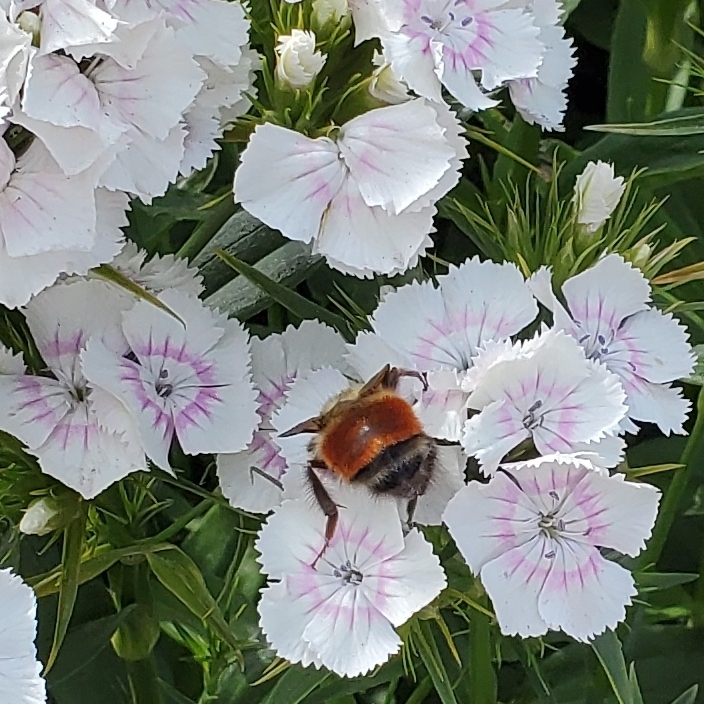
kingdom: Animalia
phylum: Arthropoda
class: Insecta
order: Hymenoptera
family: Apidae
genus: Bombus
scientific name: Bombus melanopygus
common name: Black tail bumble bee
